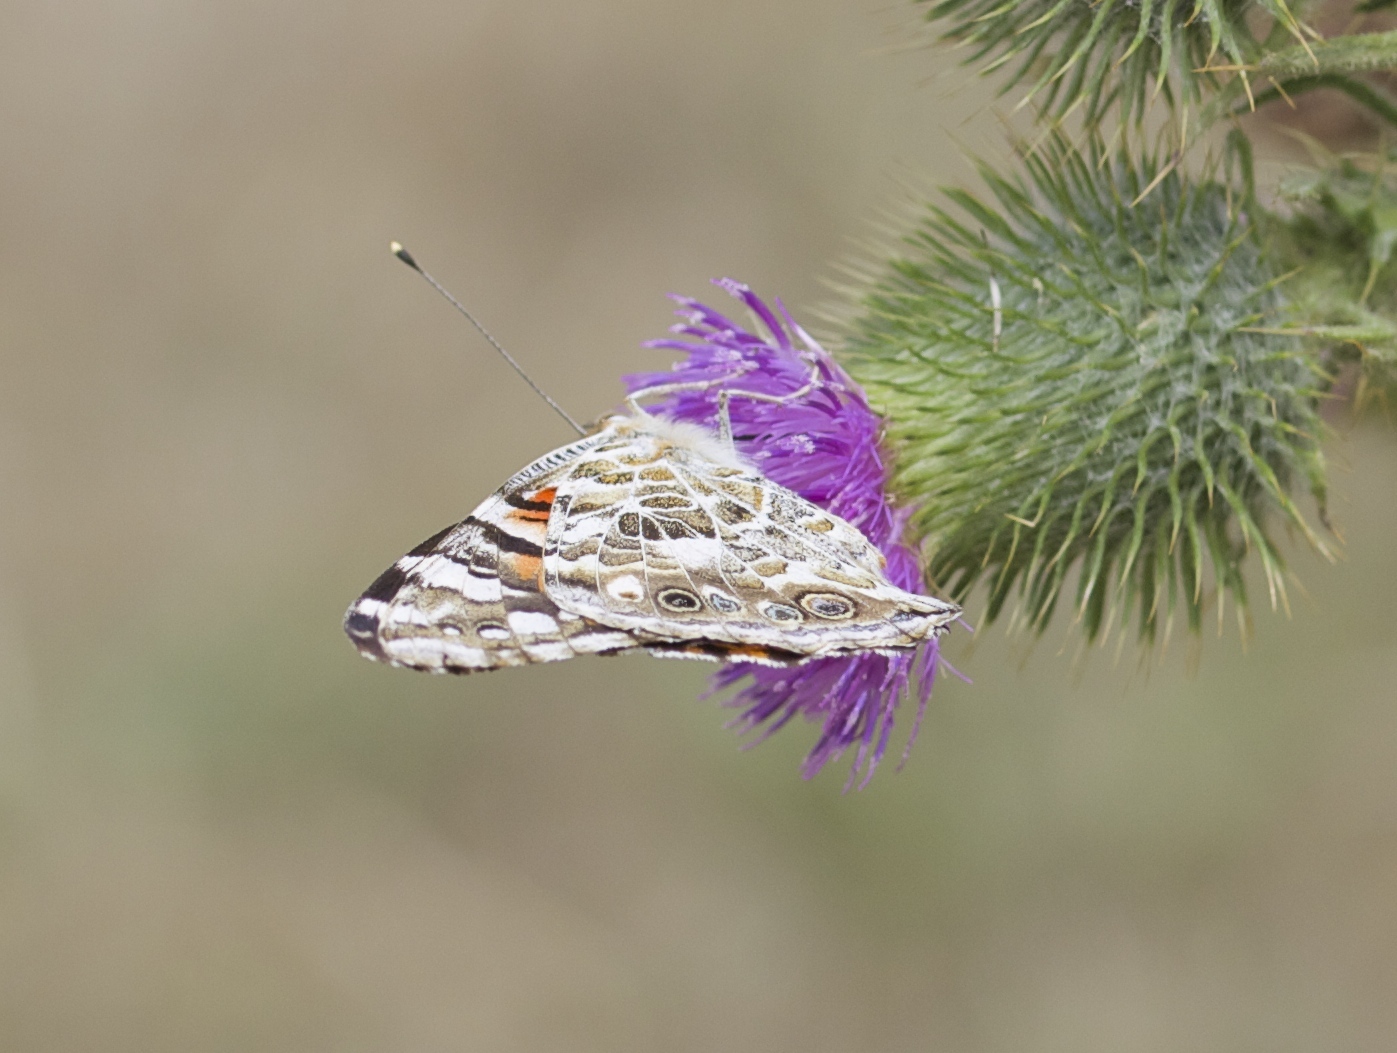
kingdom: Animalia
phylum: Arthropoda
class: Insecta
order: Lepidoptera
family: Nymphalidae
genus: Vanessa
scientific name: Vanessa cardui
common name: Painted lady
